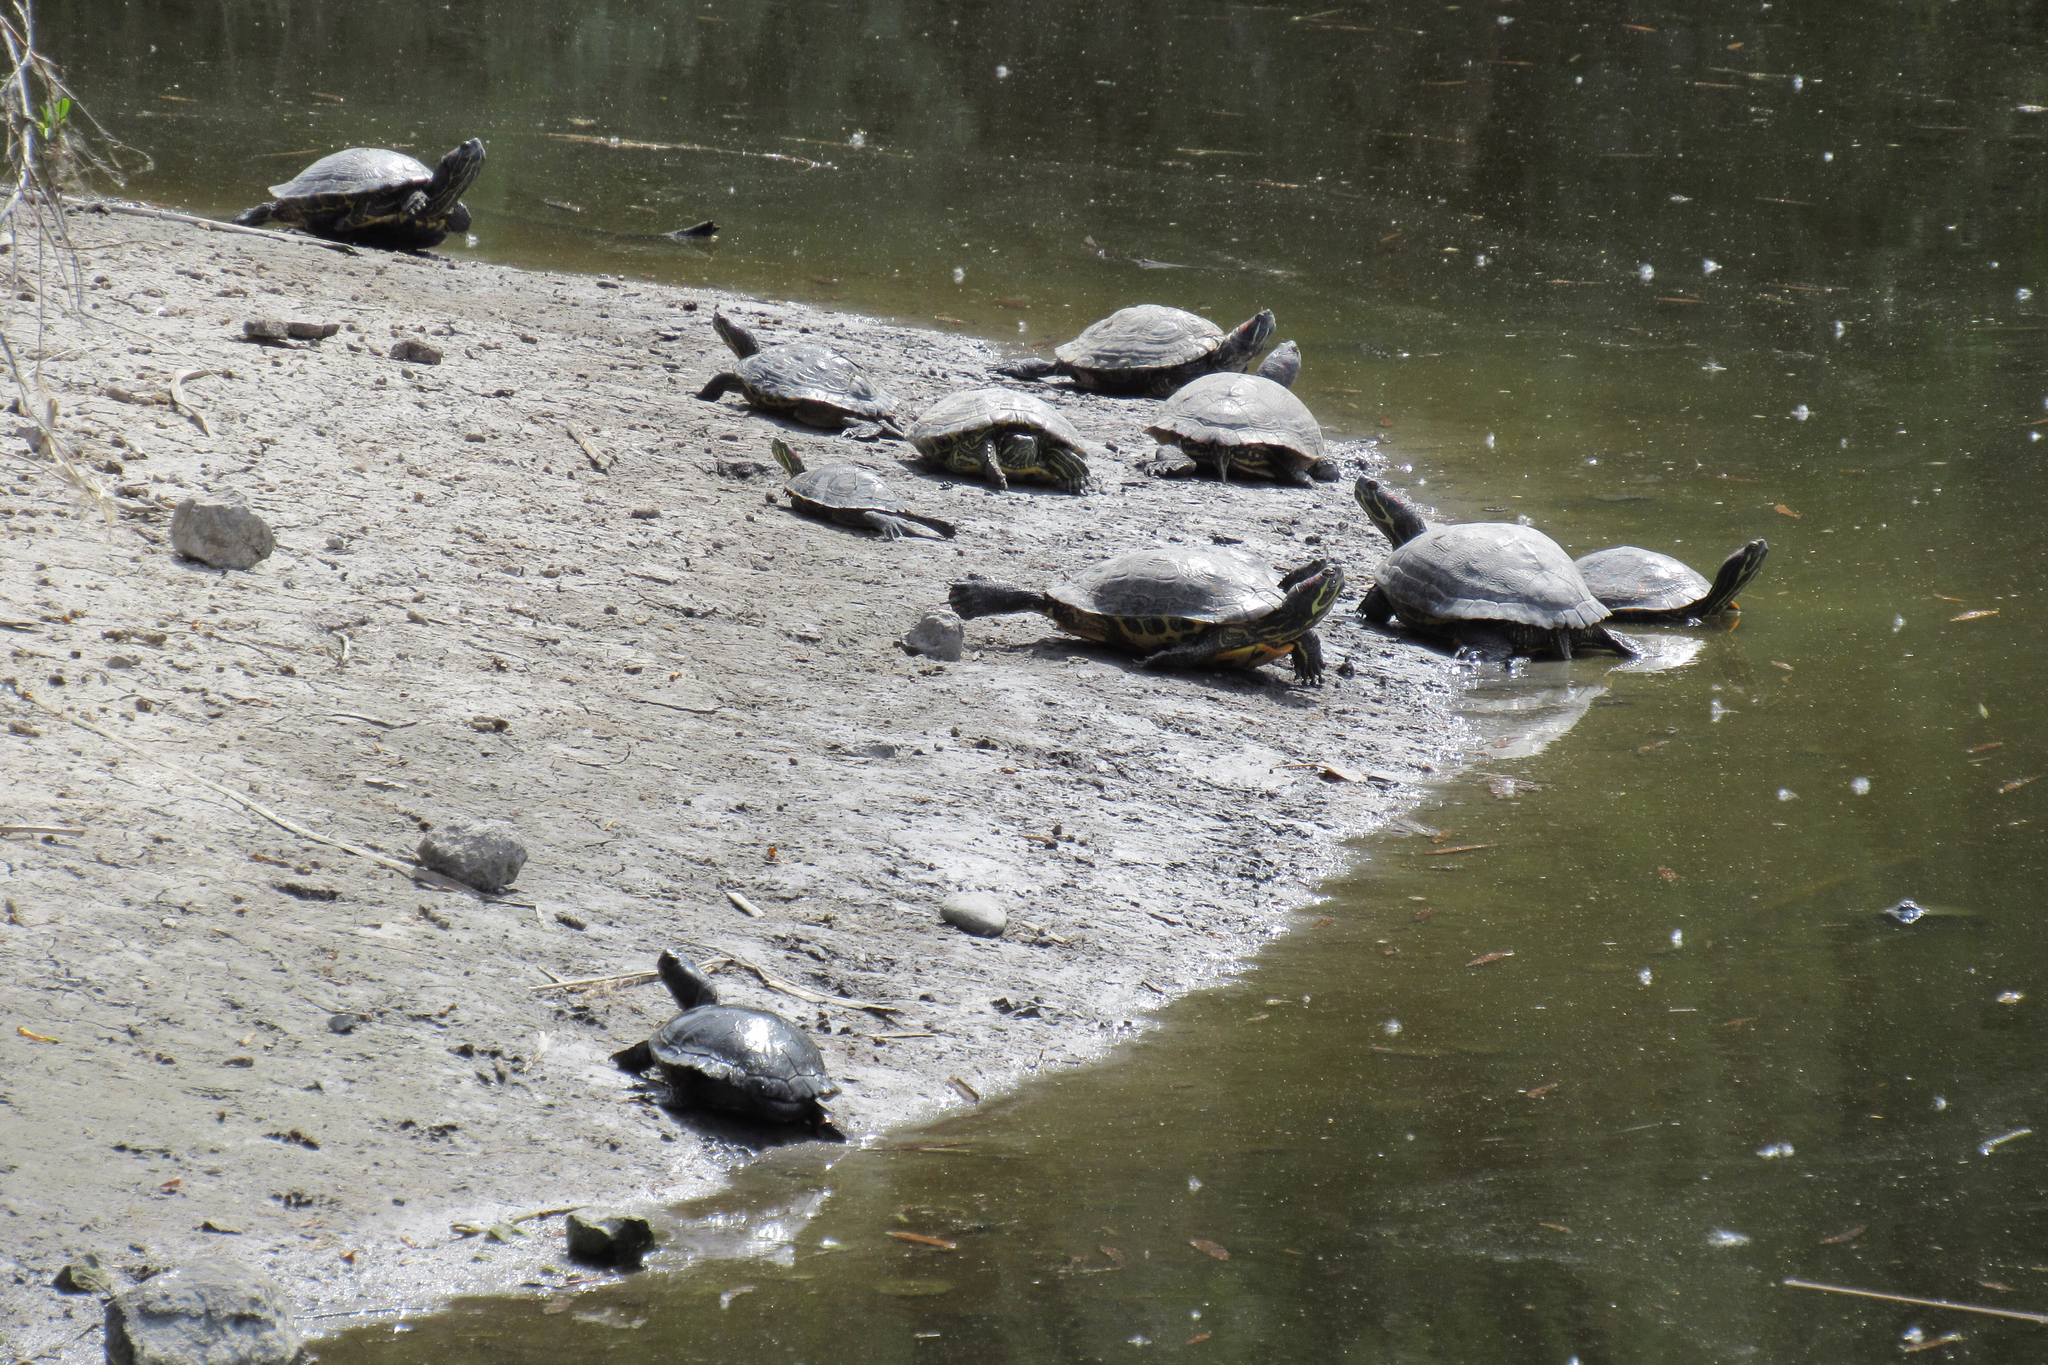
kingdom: Animalia
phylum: Chordata
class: Testudines
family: Emydidae
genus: Trachemys
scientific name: Trachemys scripta
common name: Slider
